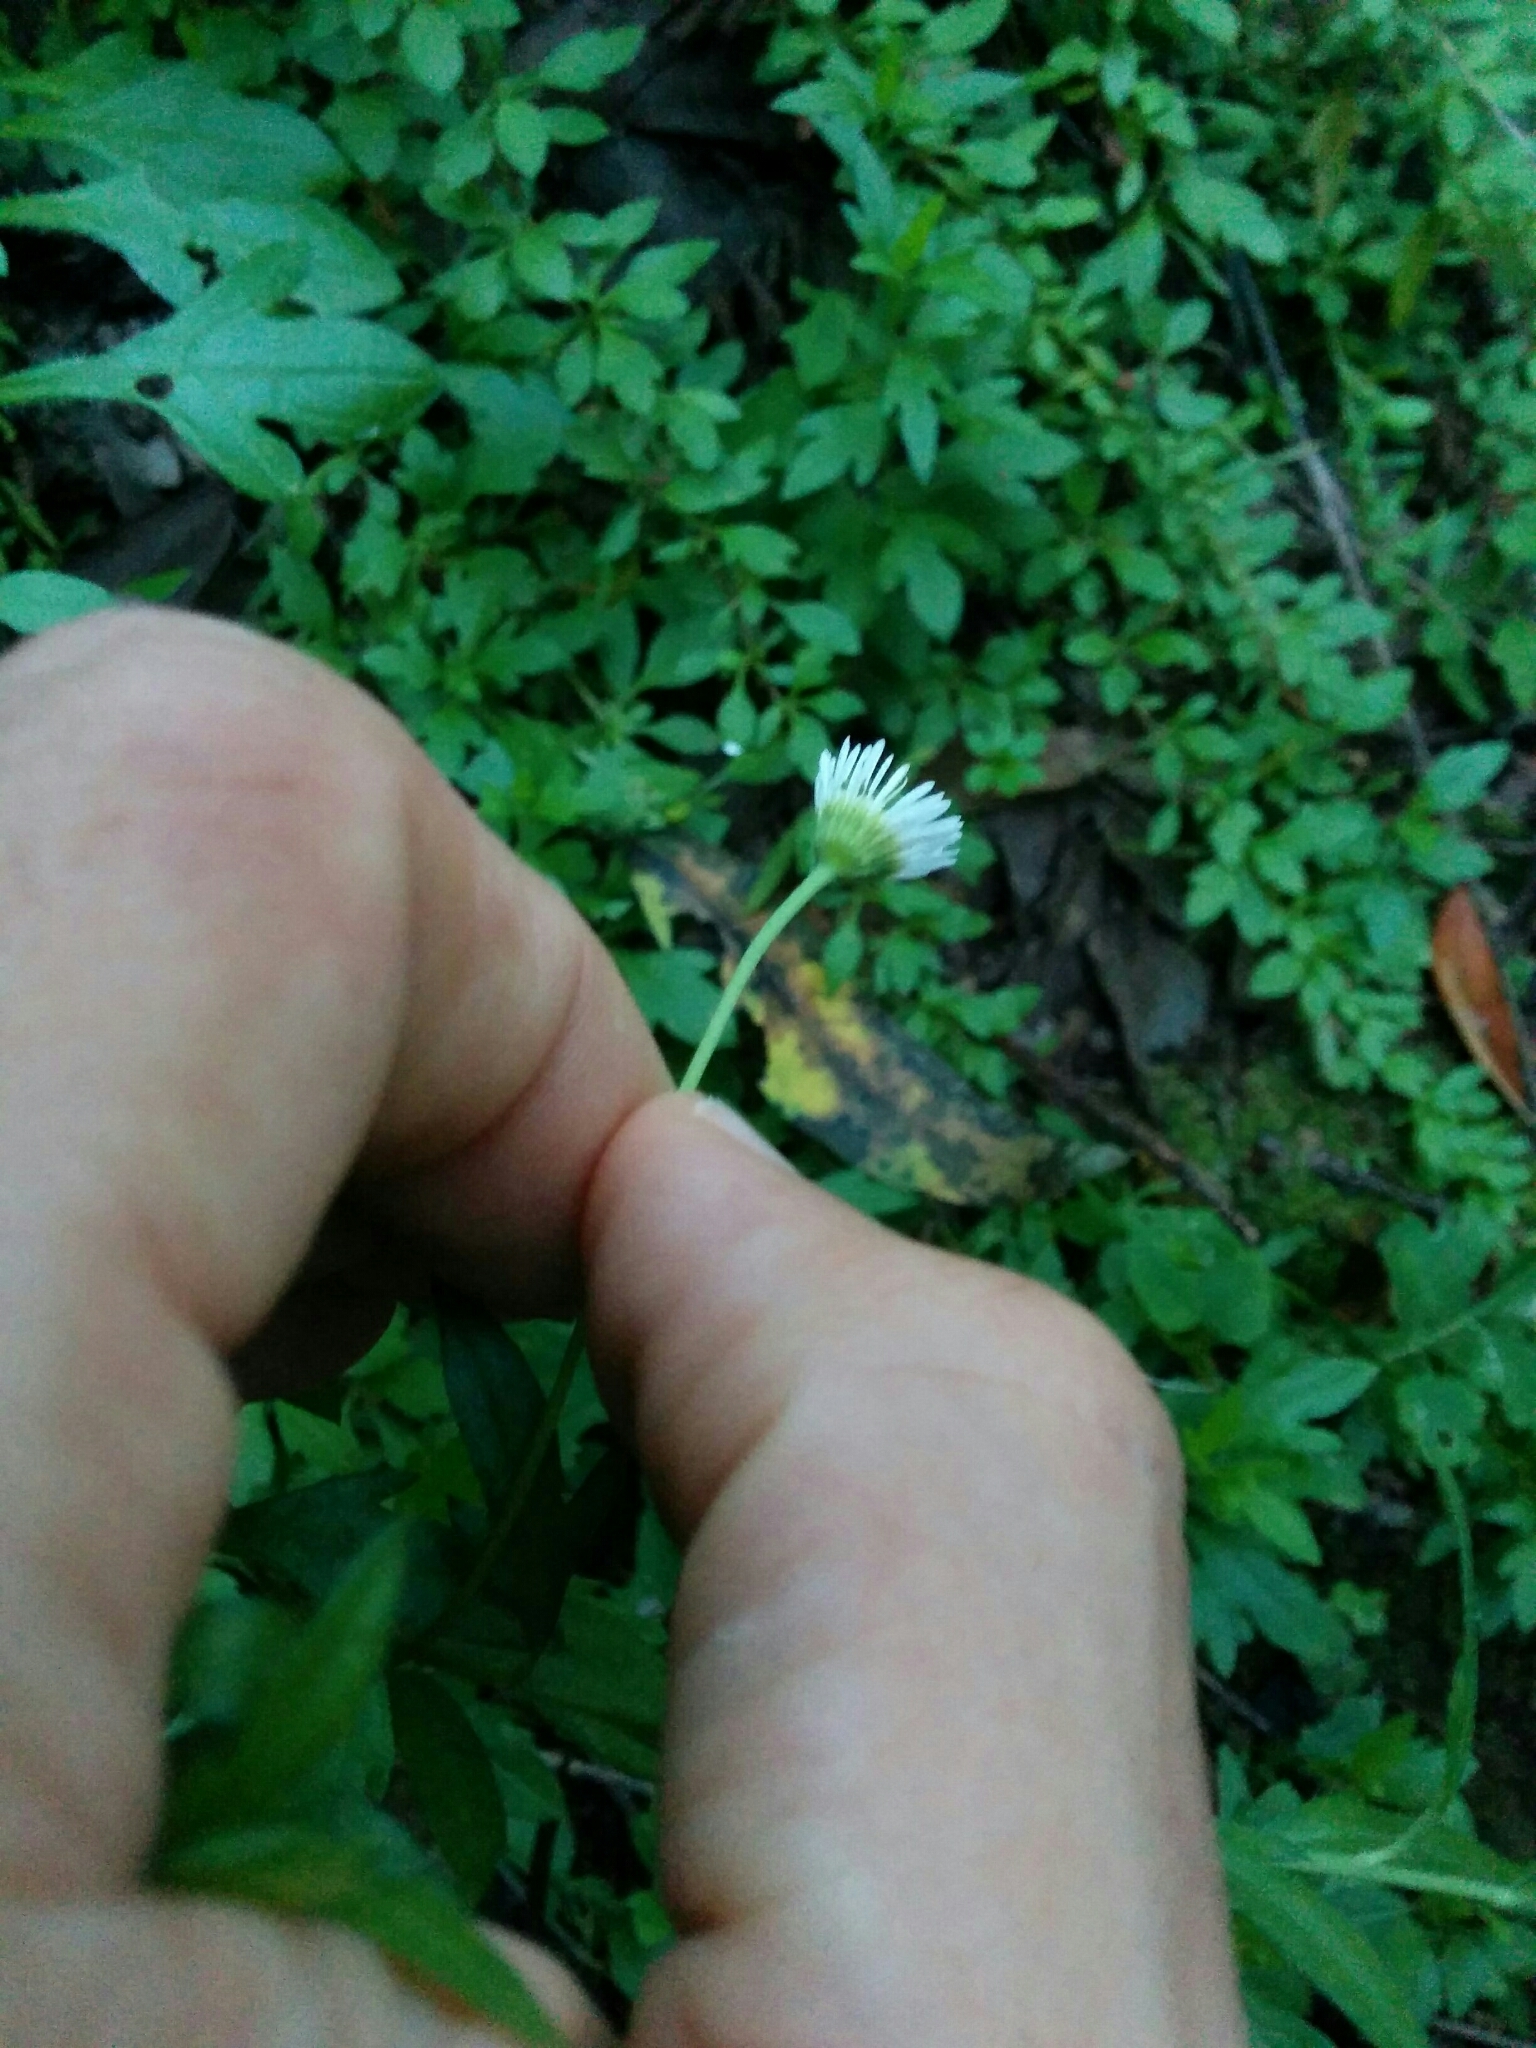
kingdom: Plantae
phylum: Tracheophyta
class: Magnoliopsida
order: Asterales
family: Asteraceae
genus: Erigeron
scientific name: Erigeron karvinskianus
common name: Mexican fleabane
